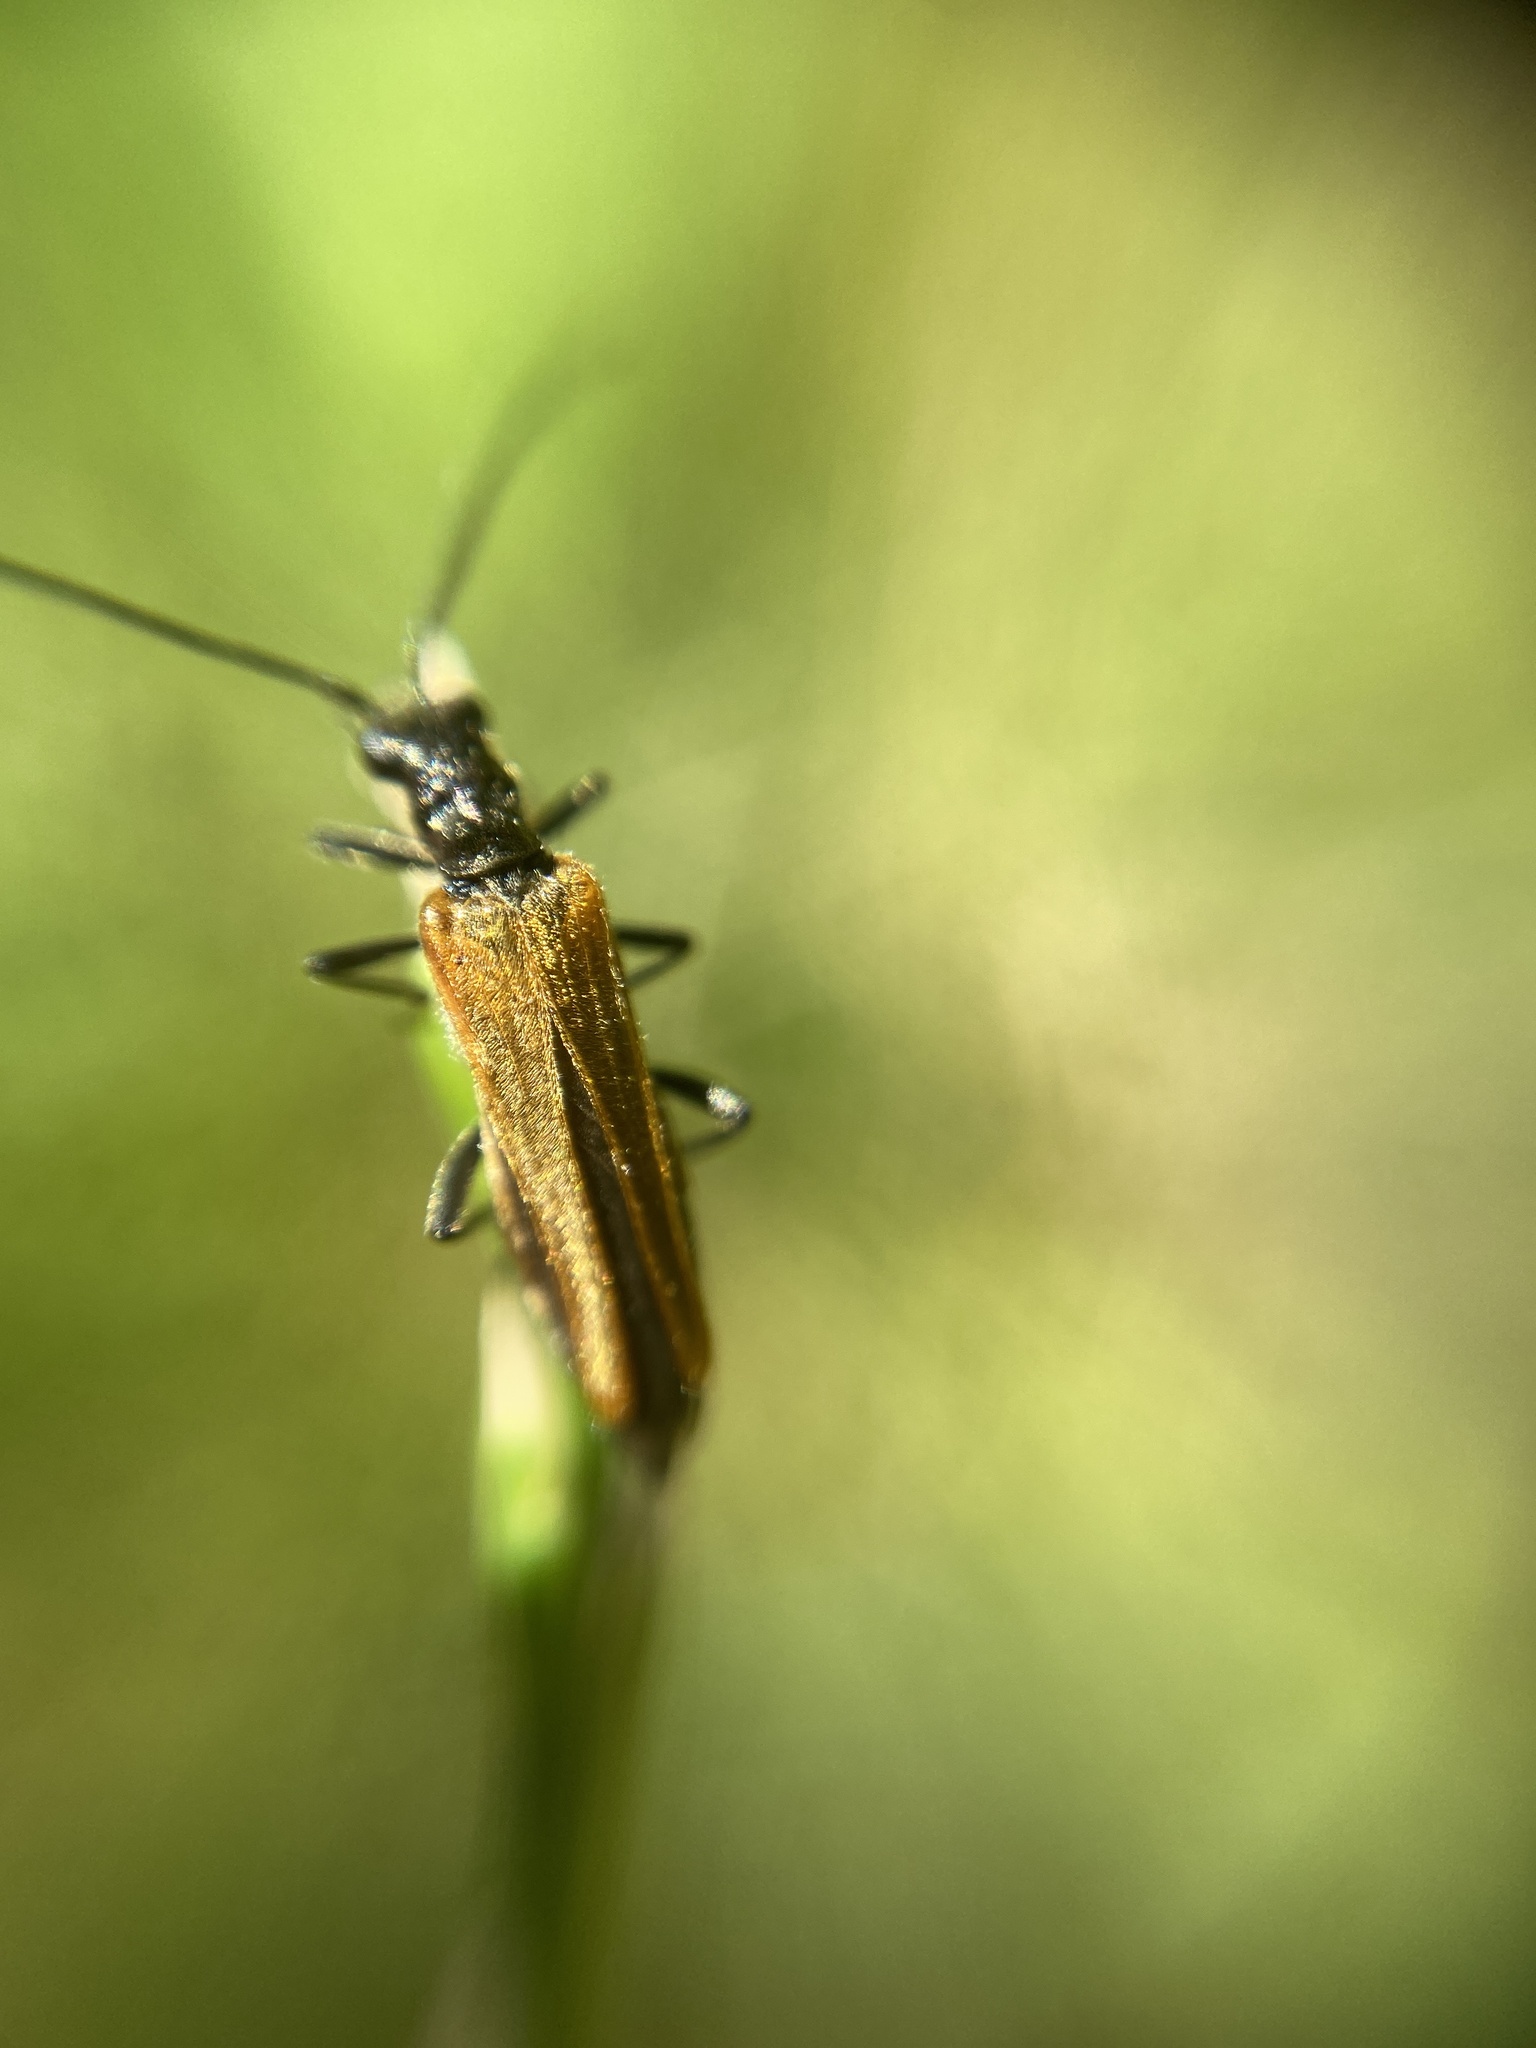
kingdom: Animalia
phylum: Arthropoda
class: Insecta
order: Coleoptera
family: Oedemeridae
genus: Oedemera
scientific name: Oedemera femorata
